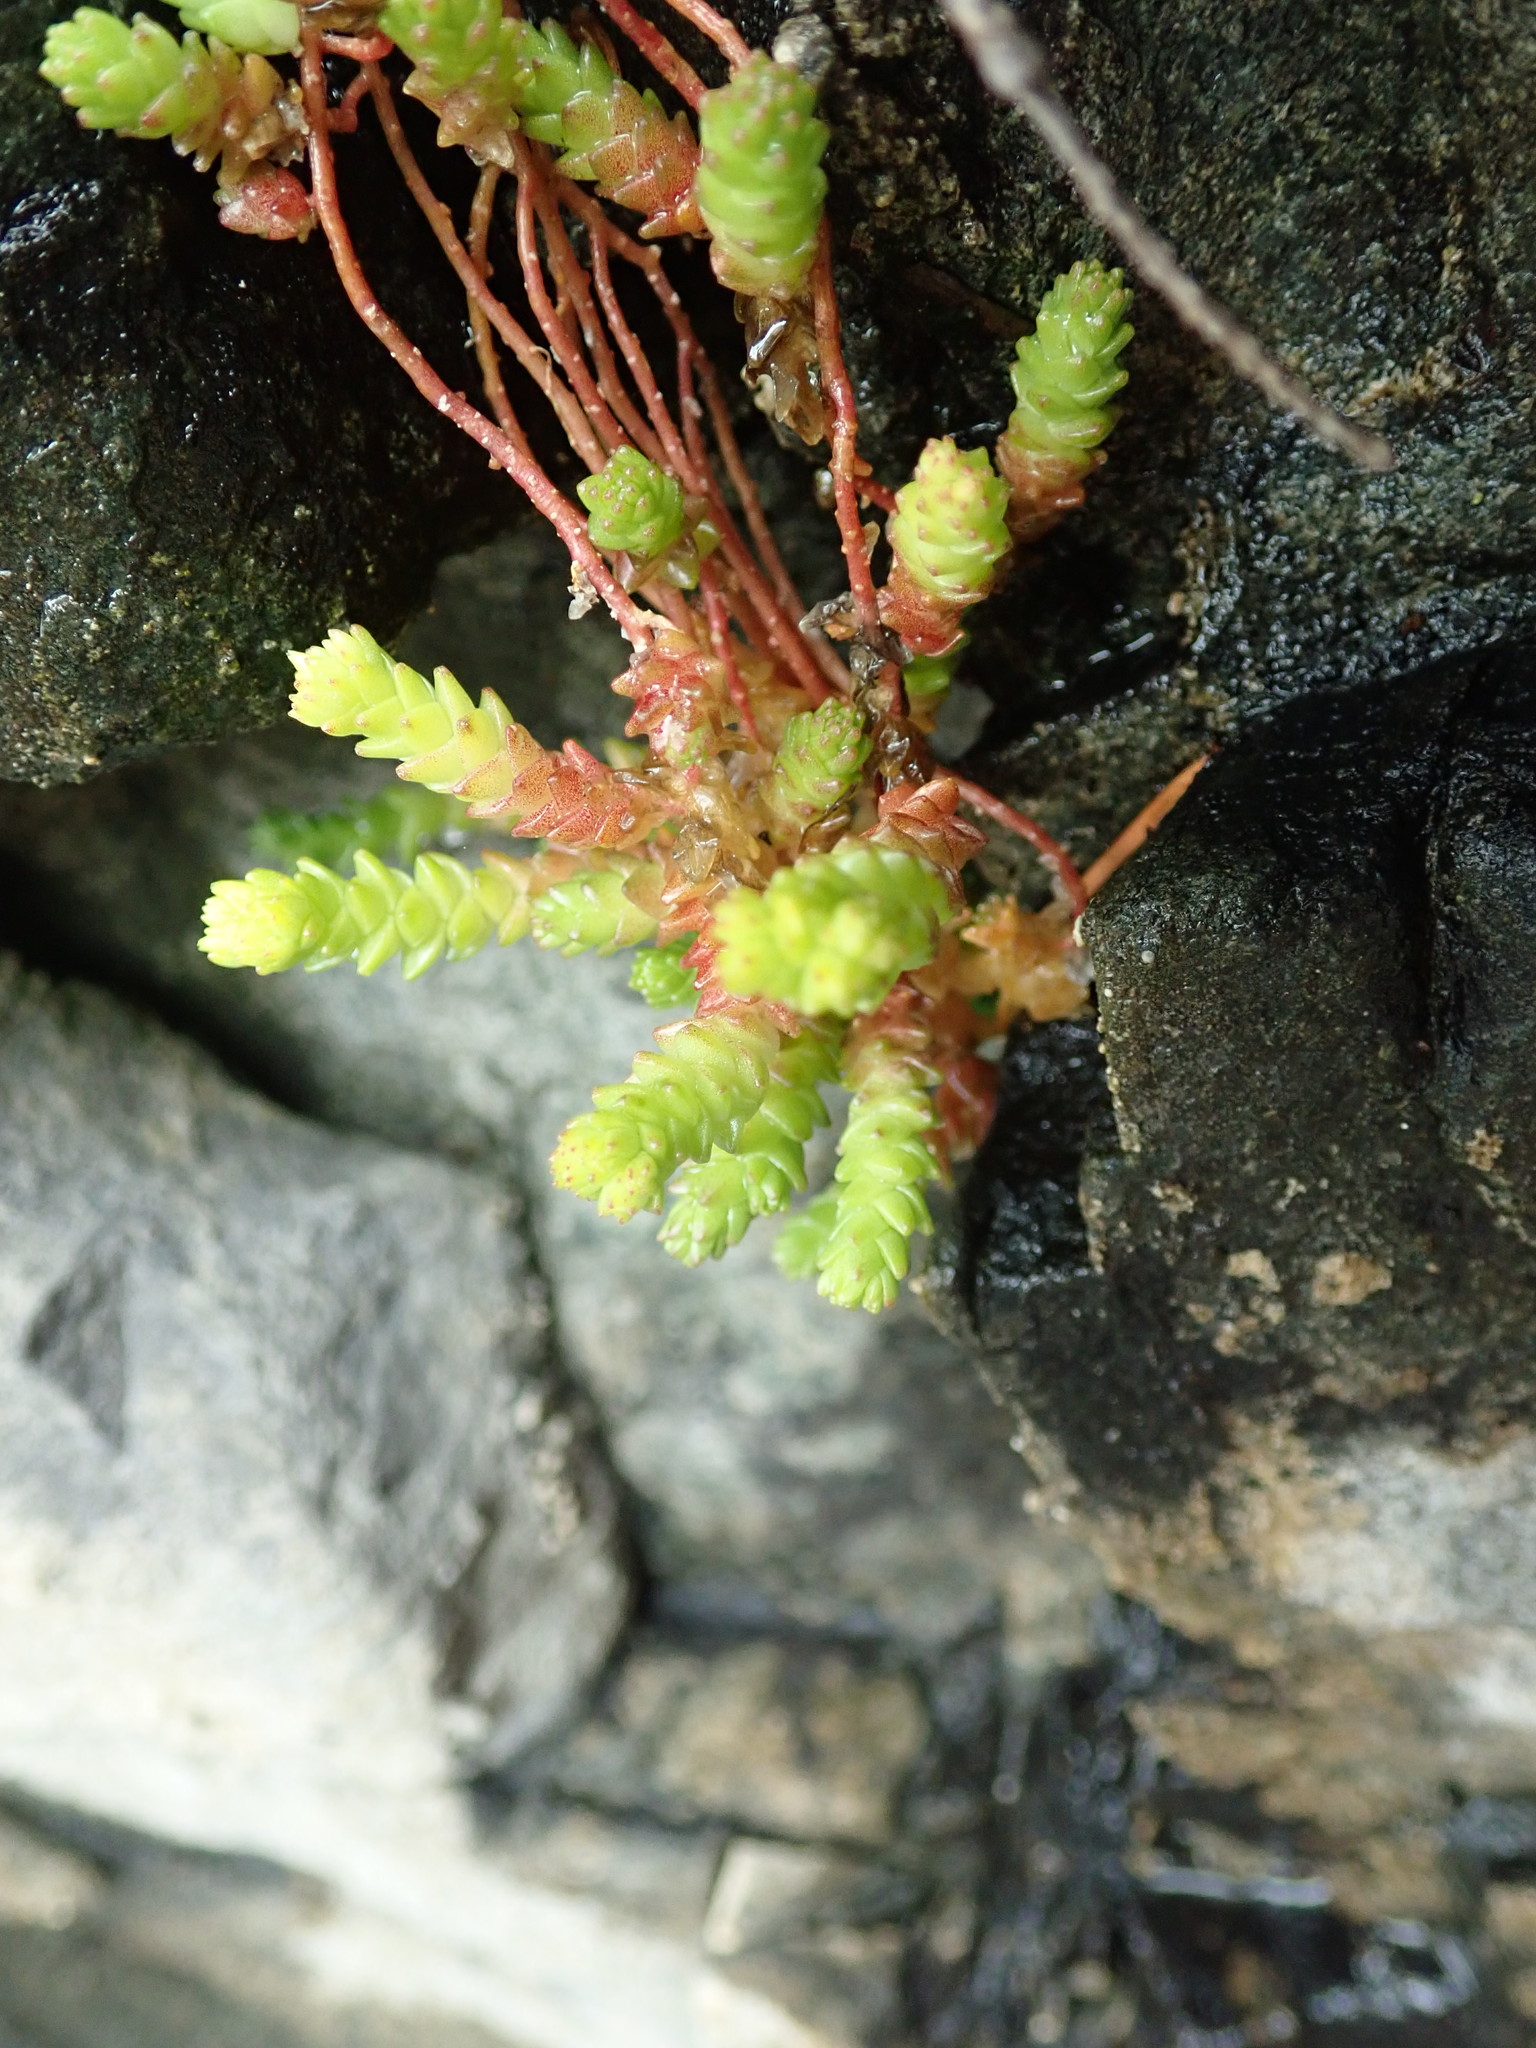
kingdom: Plantae
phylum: Tracheophyta
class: Magnoliopsida
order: Saxifragales
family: Crassulaceae
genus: Sedum
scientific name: Sedum acre
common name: Biting stonecrop
